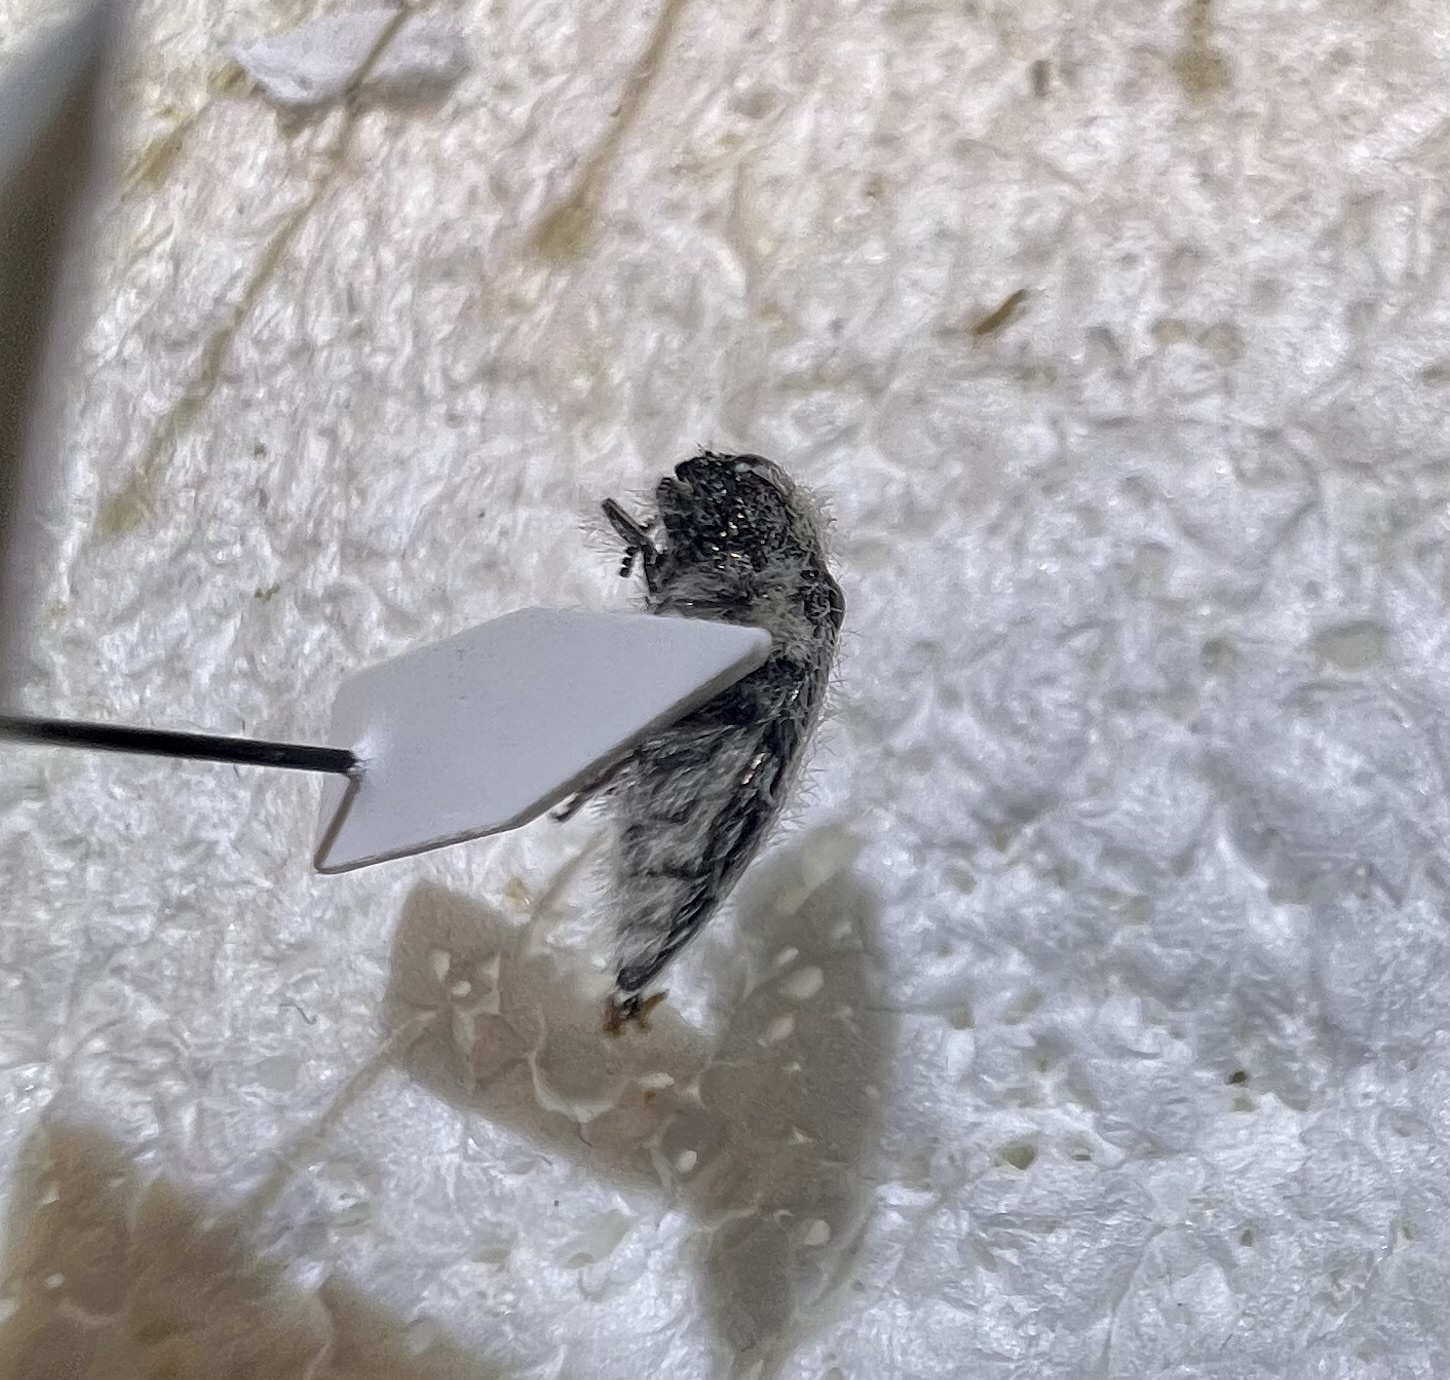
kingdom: Animalia
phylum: Arthropoda
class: Insecta
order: Coleoptera
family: Buprestidae
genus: Acmaeodera
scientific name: Acmaeodera curtilata
